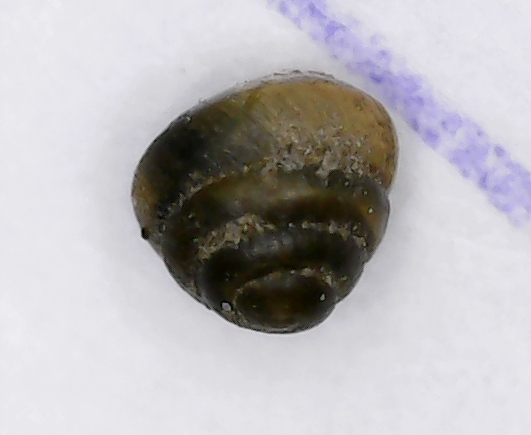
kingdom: Animalia
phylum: Mollusca
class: Gastropoda
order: Stylommatophora
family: Lauriidae
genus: Lauria
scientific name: Lauria cylindracea
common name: Common chrysalis snail
